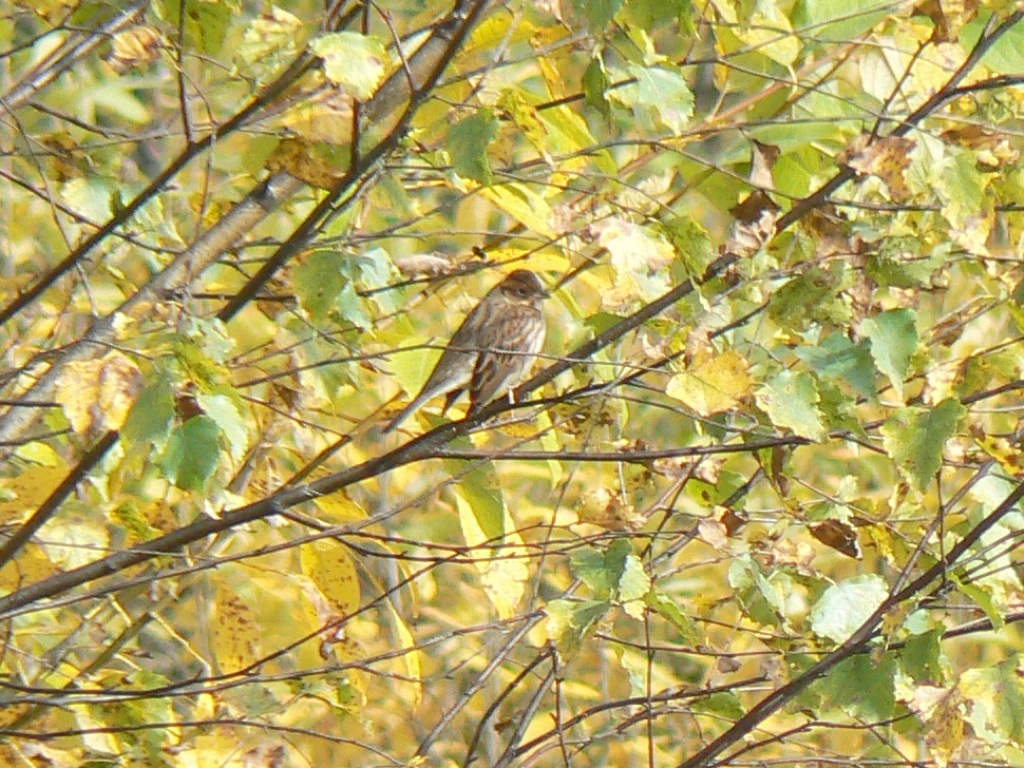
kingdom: Animalia
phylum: Chordata
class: Aves
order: Passeriformes
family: Emberizidae
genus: Emberiza
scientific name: Emberiza pusilla
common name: Little bunting
